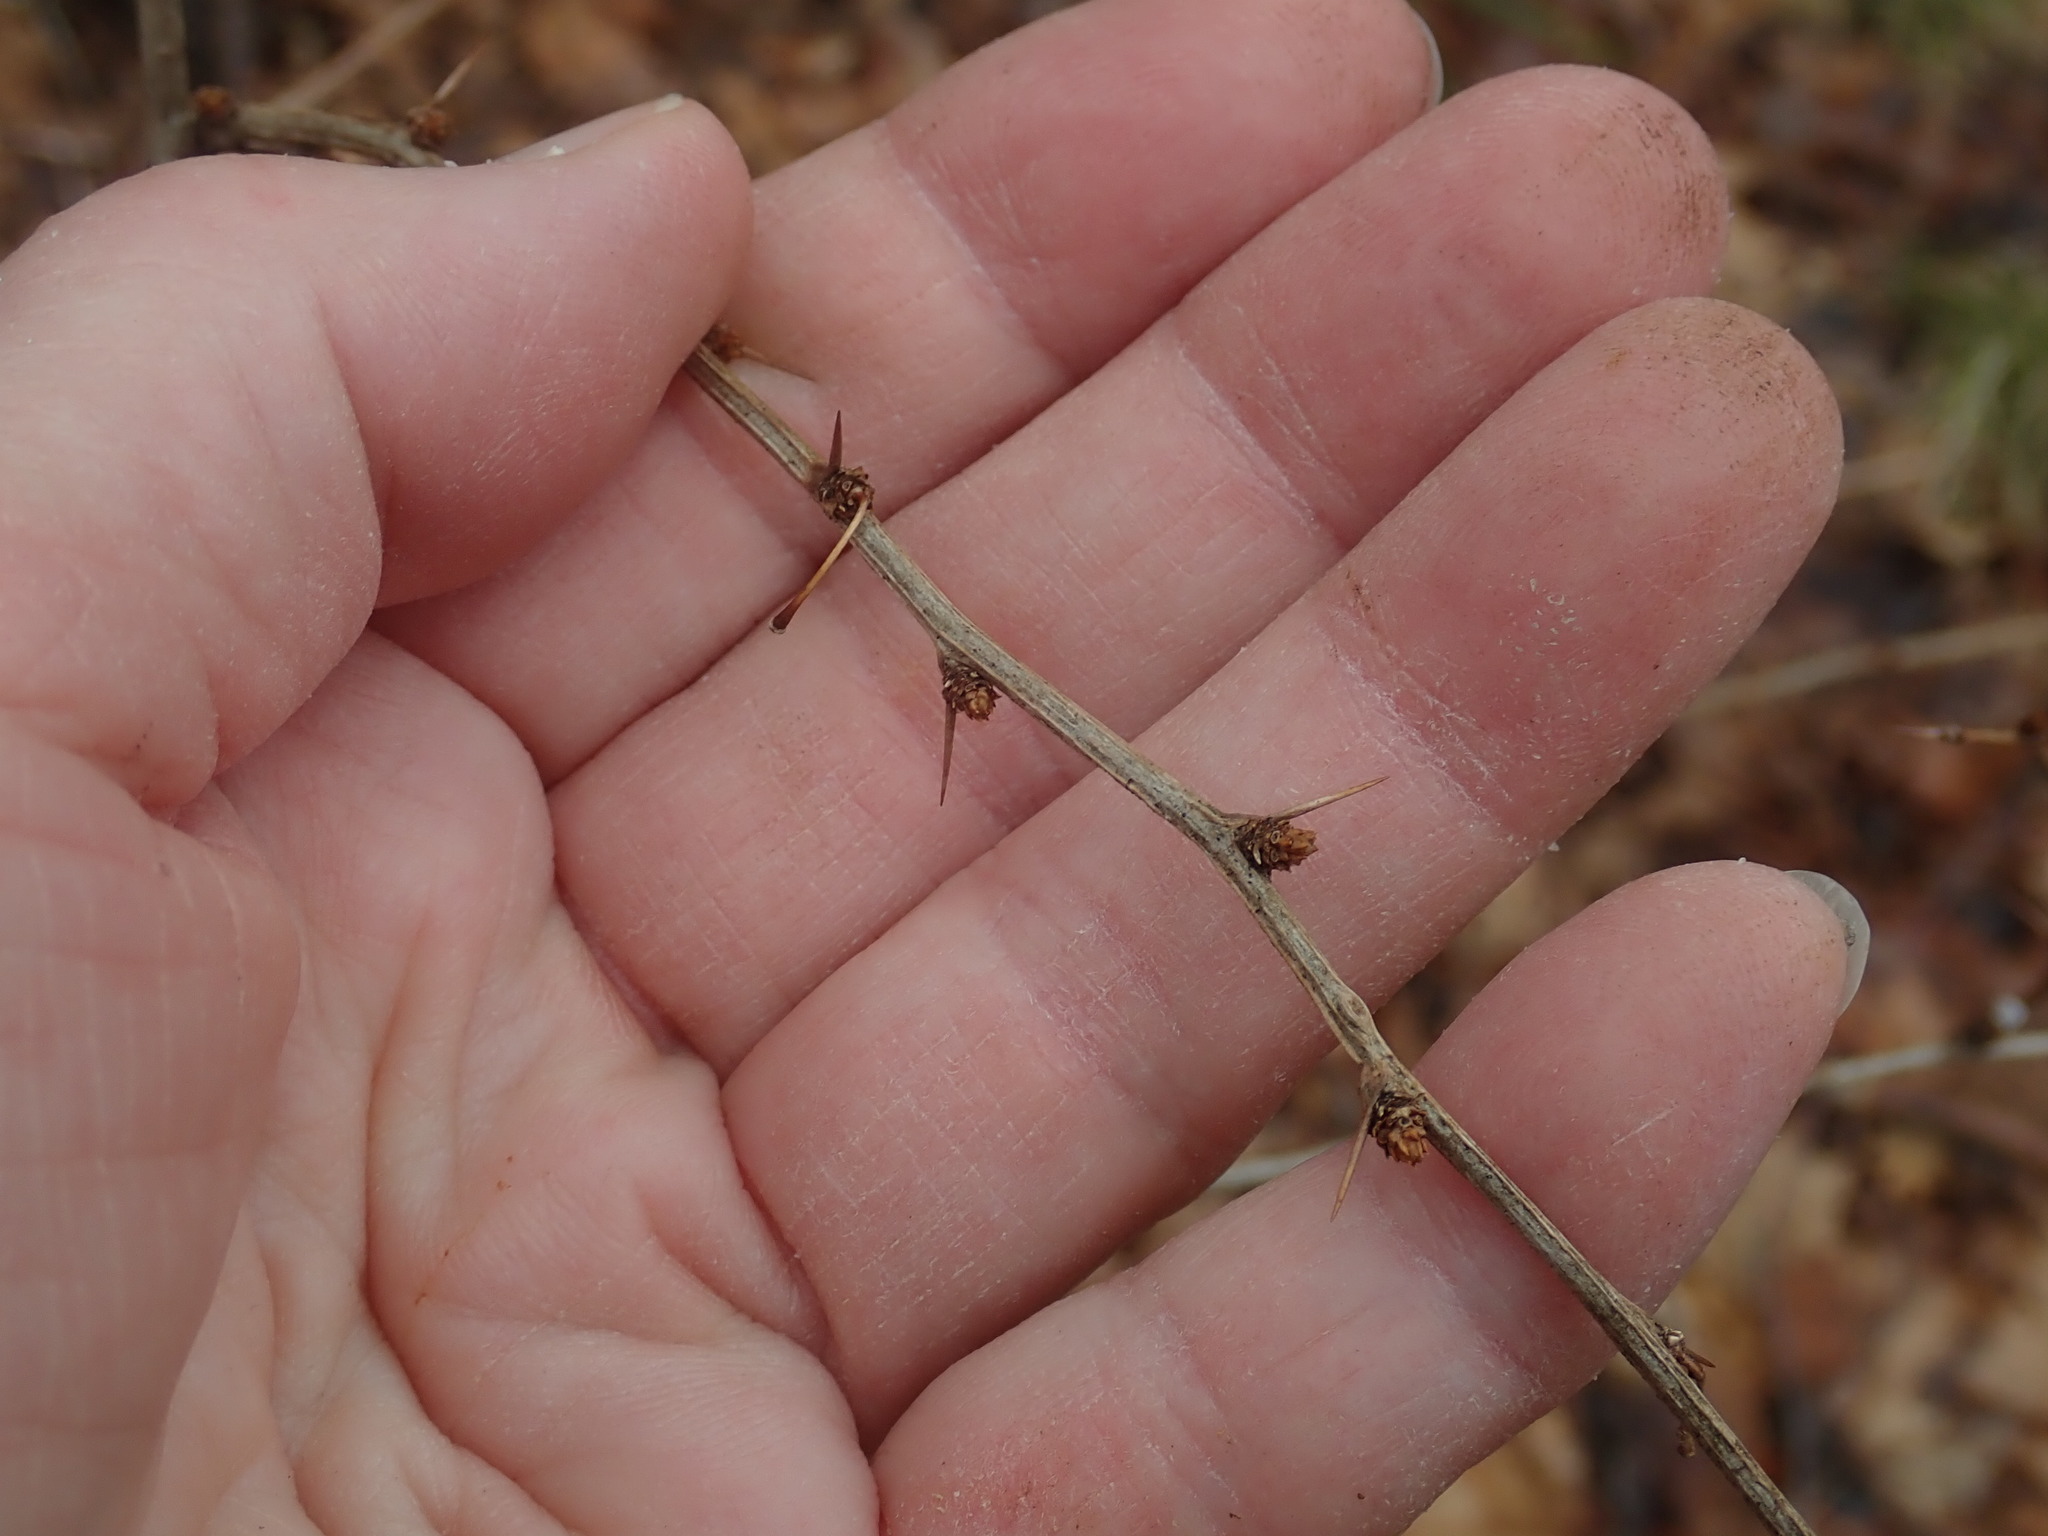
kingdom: Plantae
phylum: Tracheophyta
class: Magnoliopsida
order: Ranunculales
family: Berberidaceae
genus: Berberis
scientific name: Berberis thunbergii
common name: Japanese barberry
